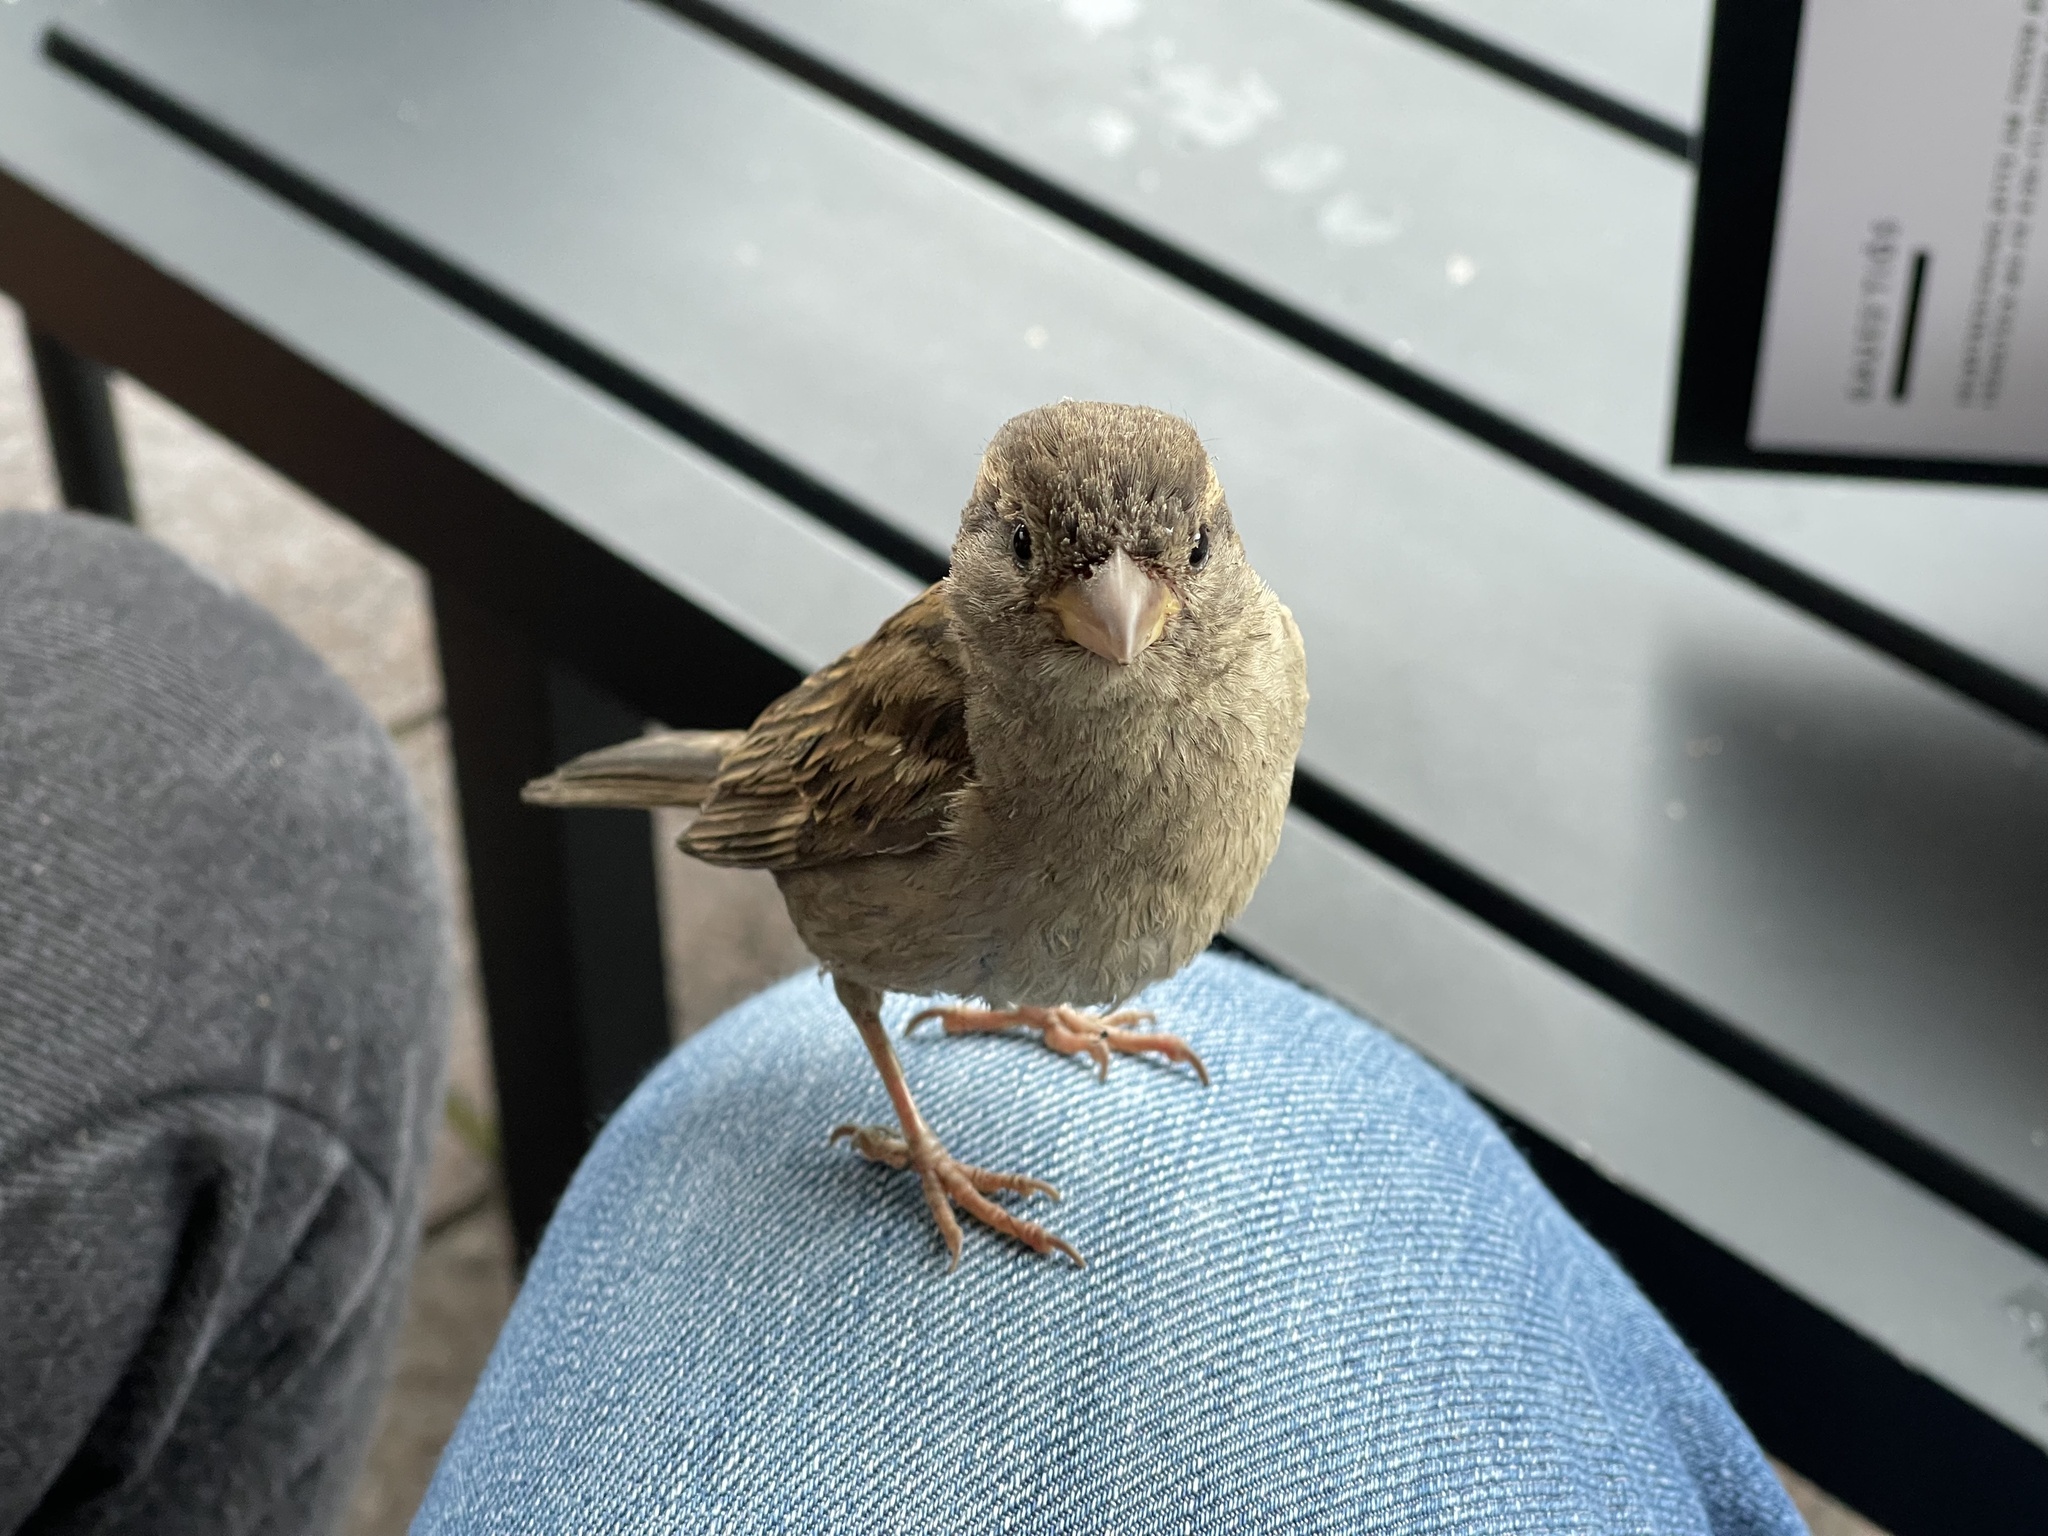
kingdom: Animalia
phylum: Chordata
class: Aves
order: Passeriformes
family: Passeridae
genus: Passer
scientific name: Passer domesticus
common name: House sparrow
